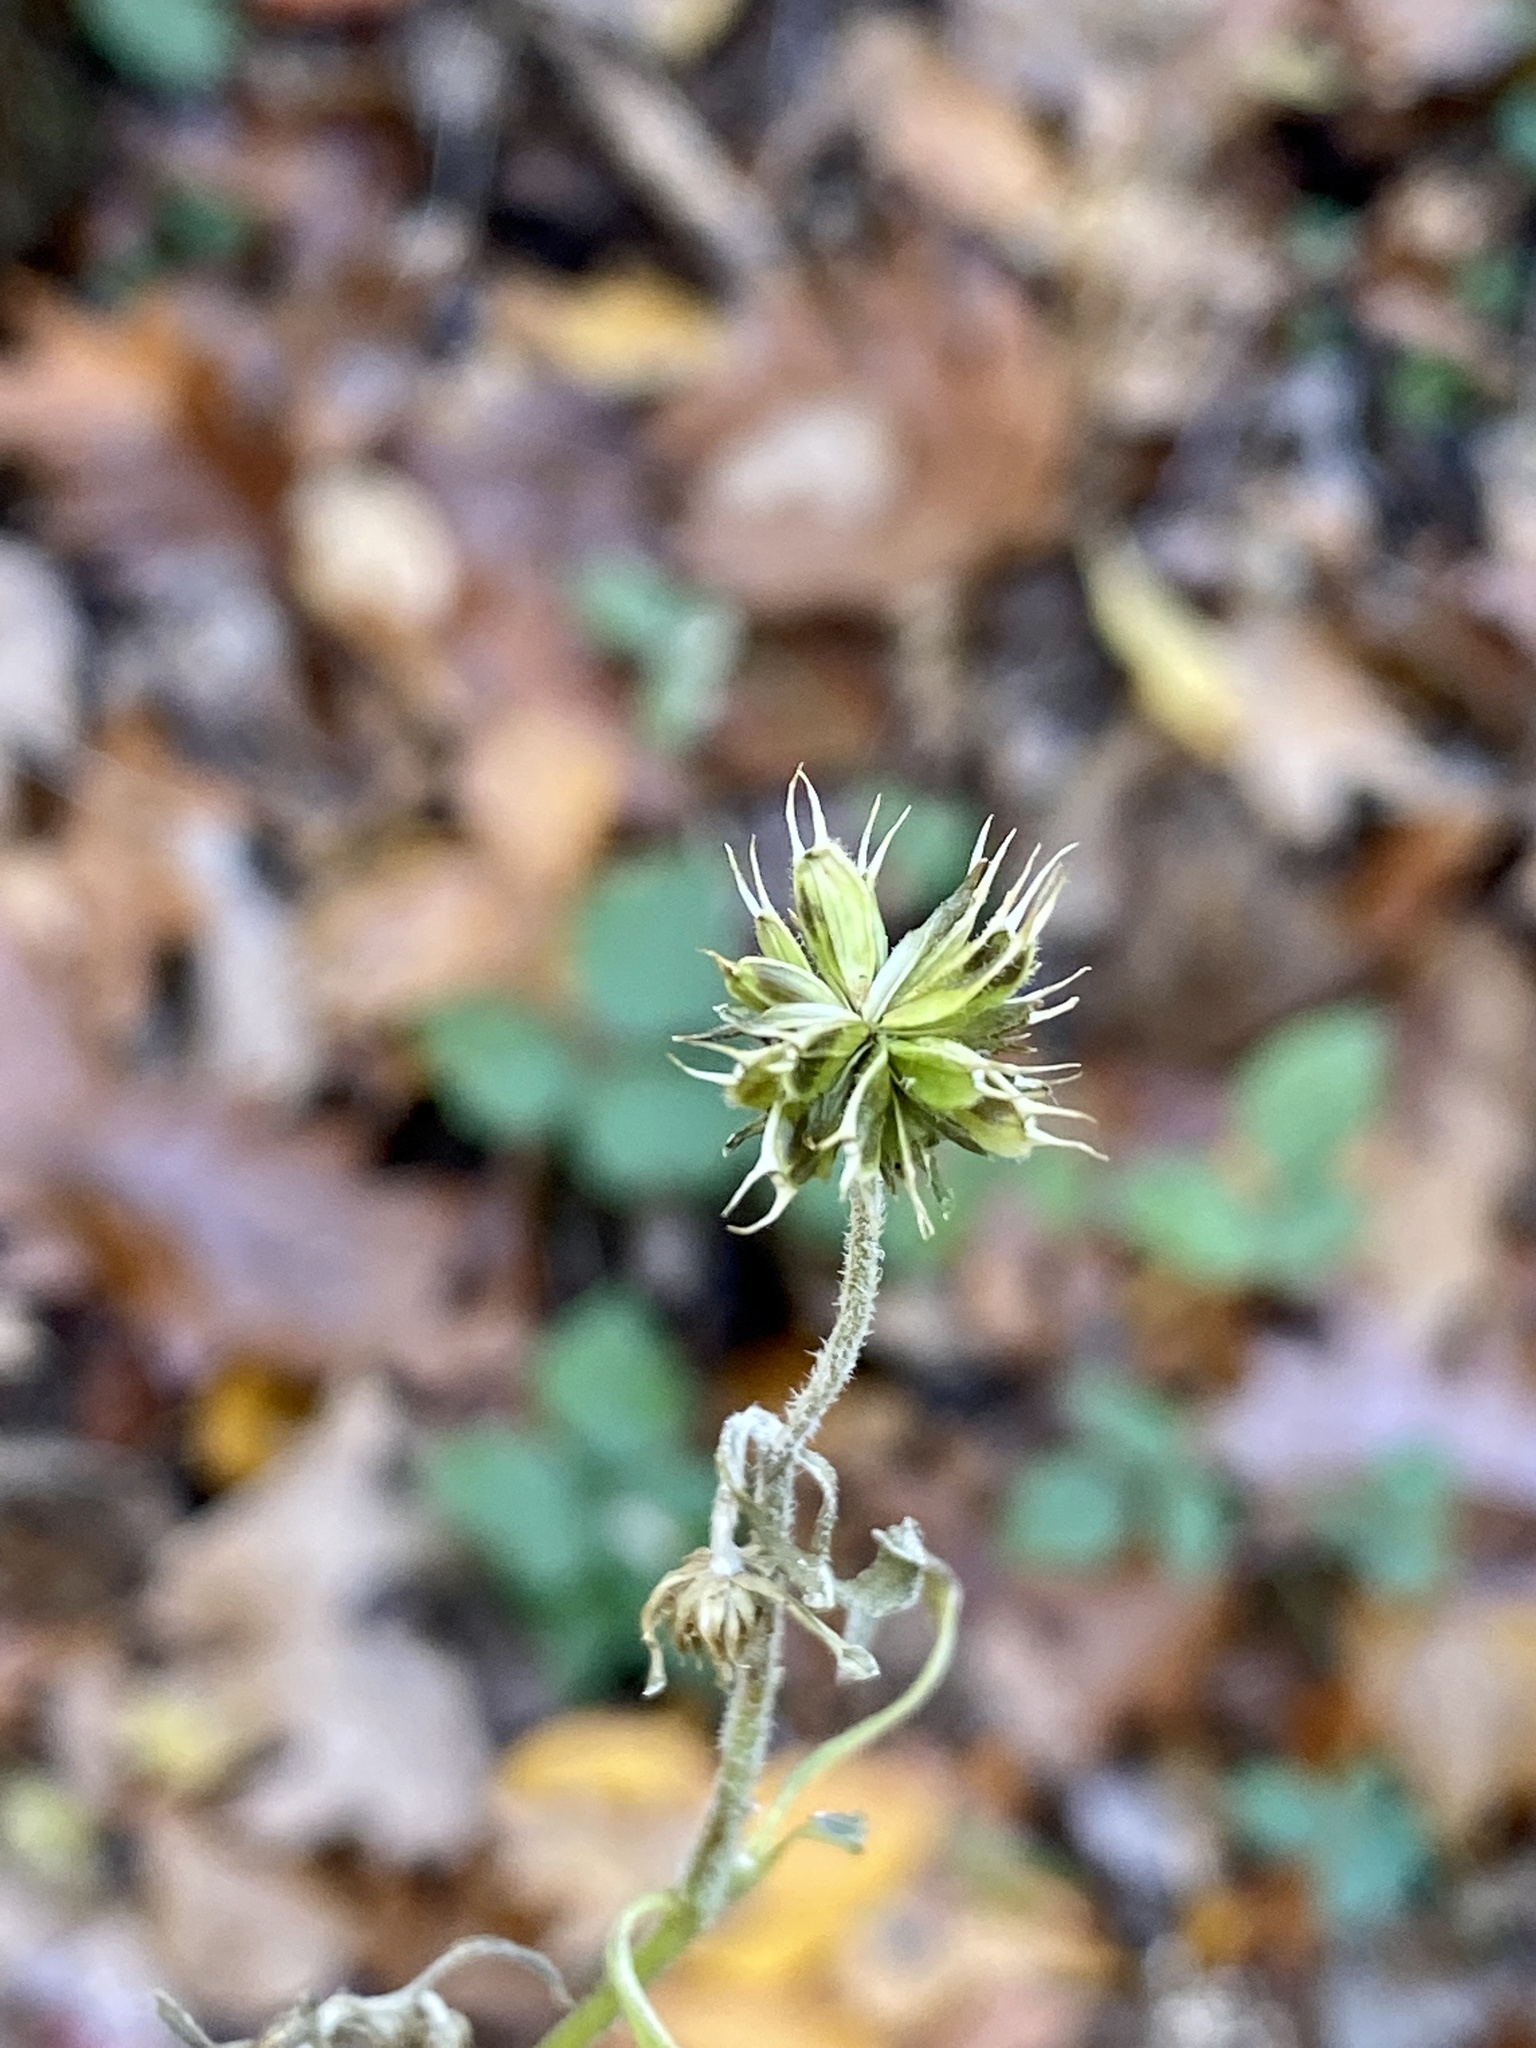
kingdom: Plantae
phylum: Tracheophyta
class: Magnoliopsida
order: Asterales
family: Asteraceae
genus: Verbesina
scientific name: Verbesina alternifolia
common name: Wingstem
